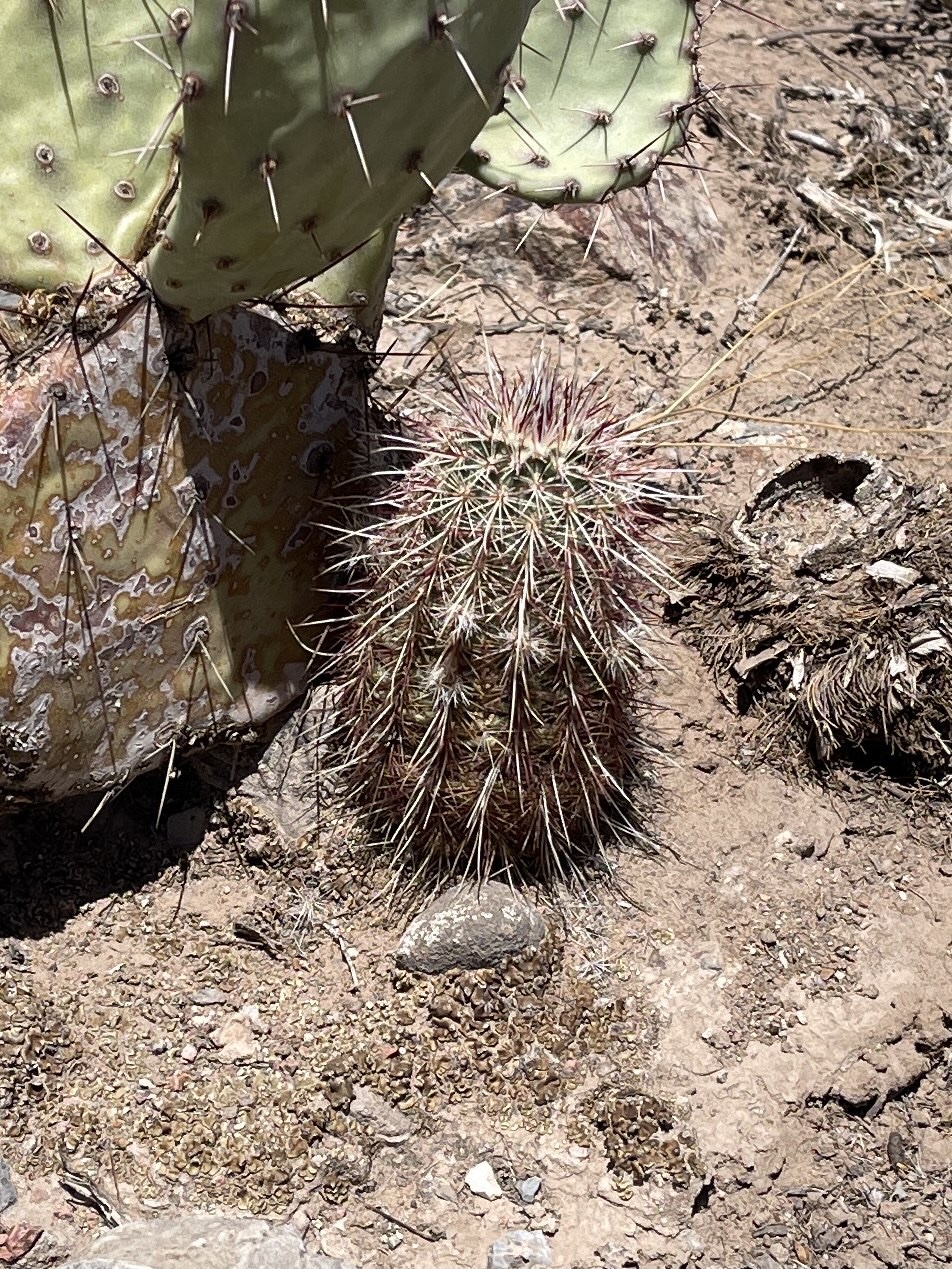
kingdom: Plantae
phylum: Tracheophyta
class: Magnoliopsida
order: Caryophyllales
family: Cactaceae
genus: Echinocereus
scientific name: Echinocereus viridiflorus
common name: Nylon hedgehog cactus
